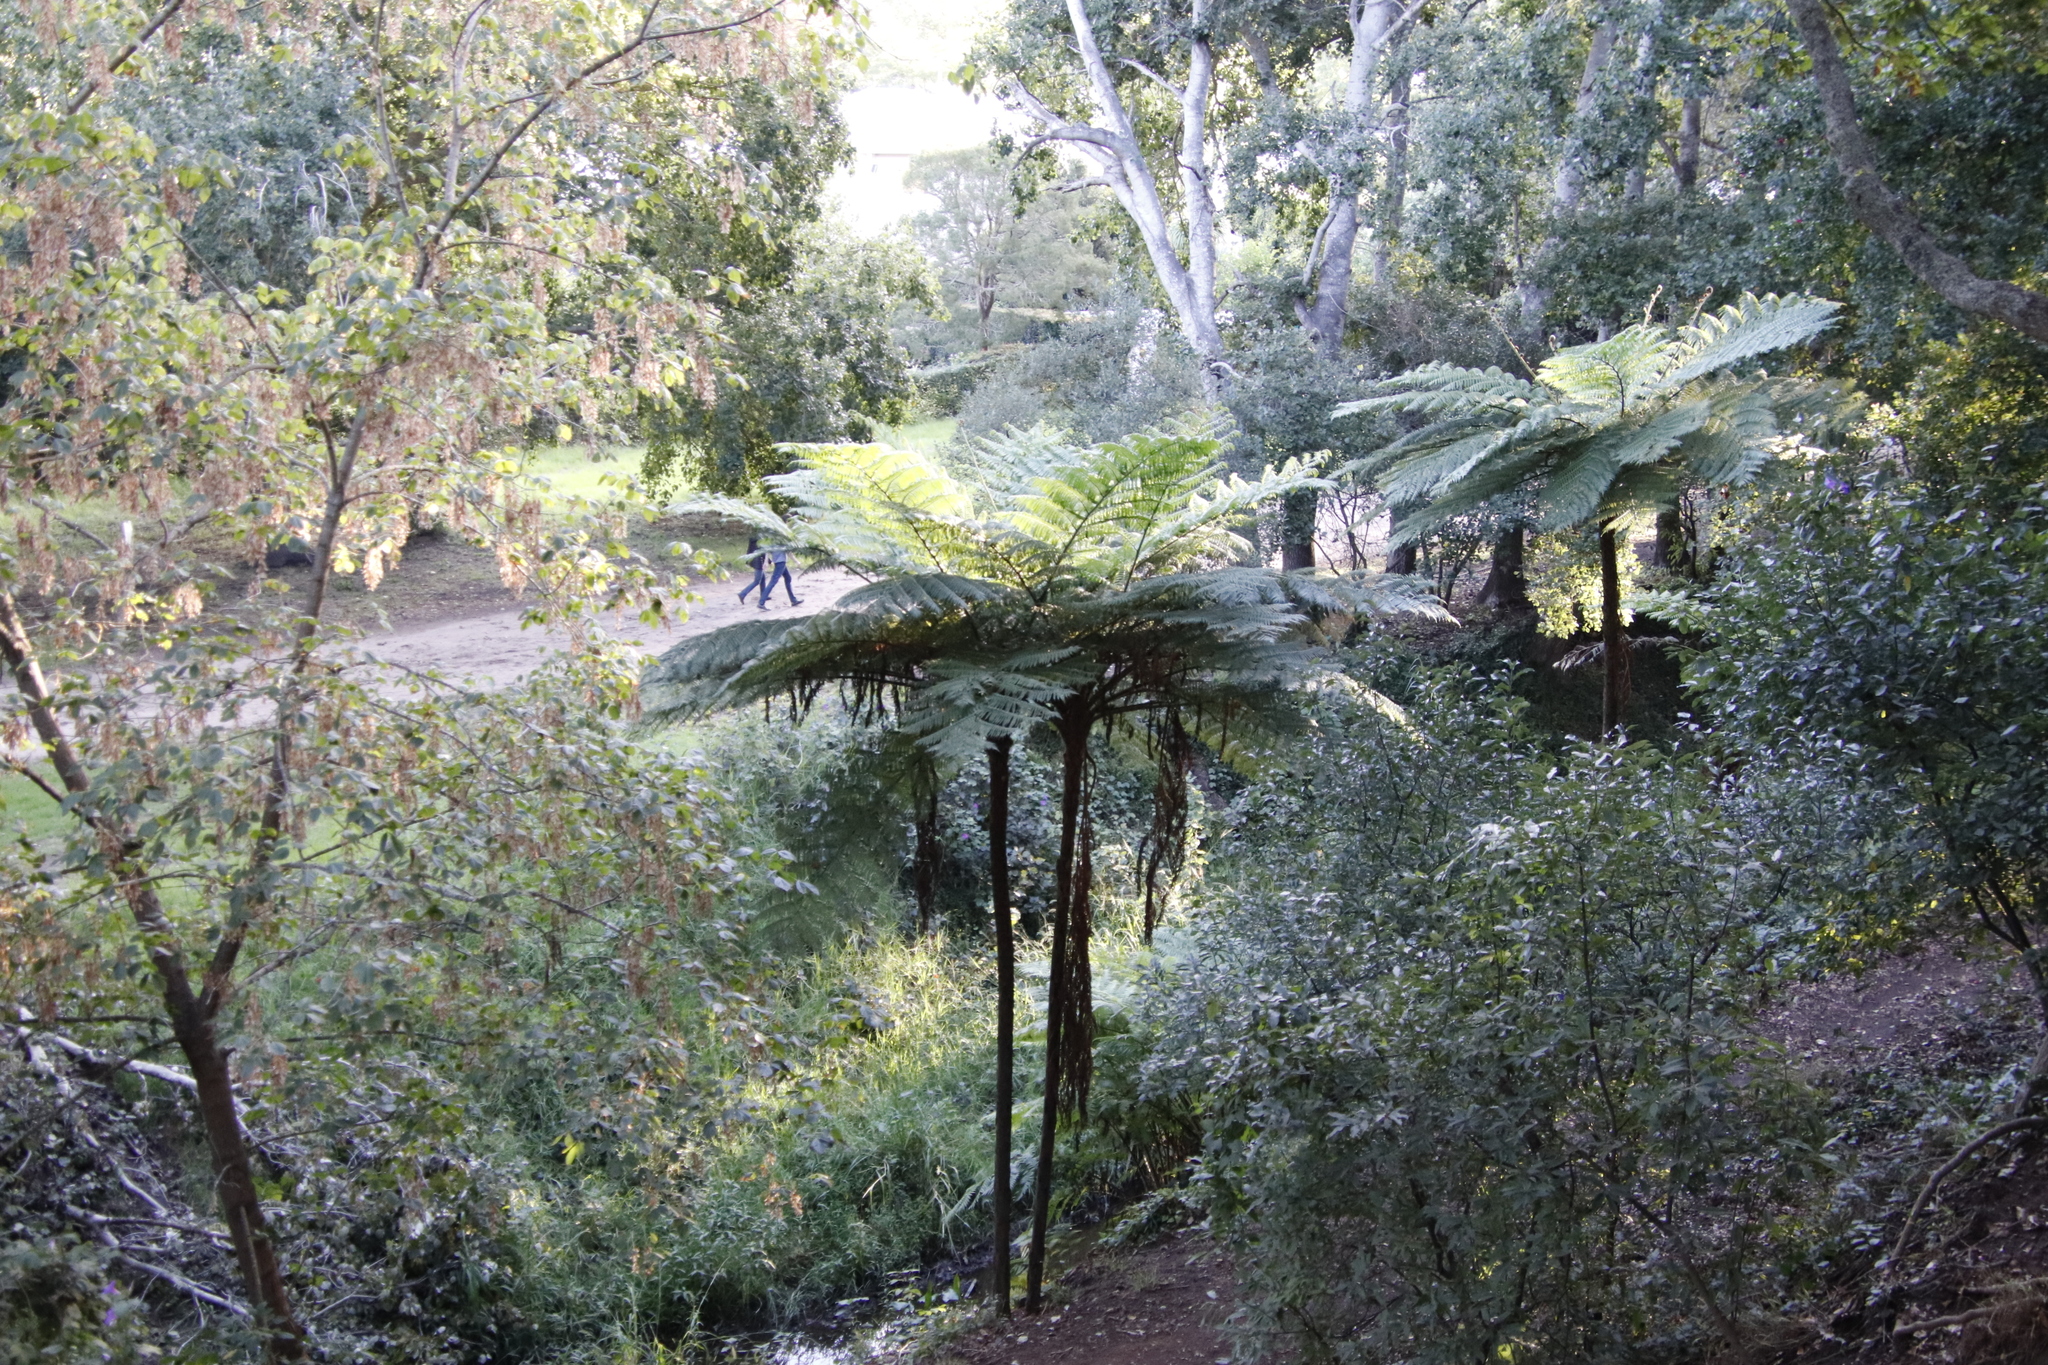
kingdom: Plantae
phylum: Tracheophyta
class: Polypodiopsida
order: Cyatheales
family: Cyatheaceae
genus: Sphaeropteris
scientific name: Sphaeropteris cooperi
